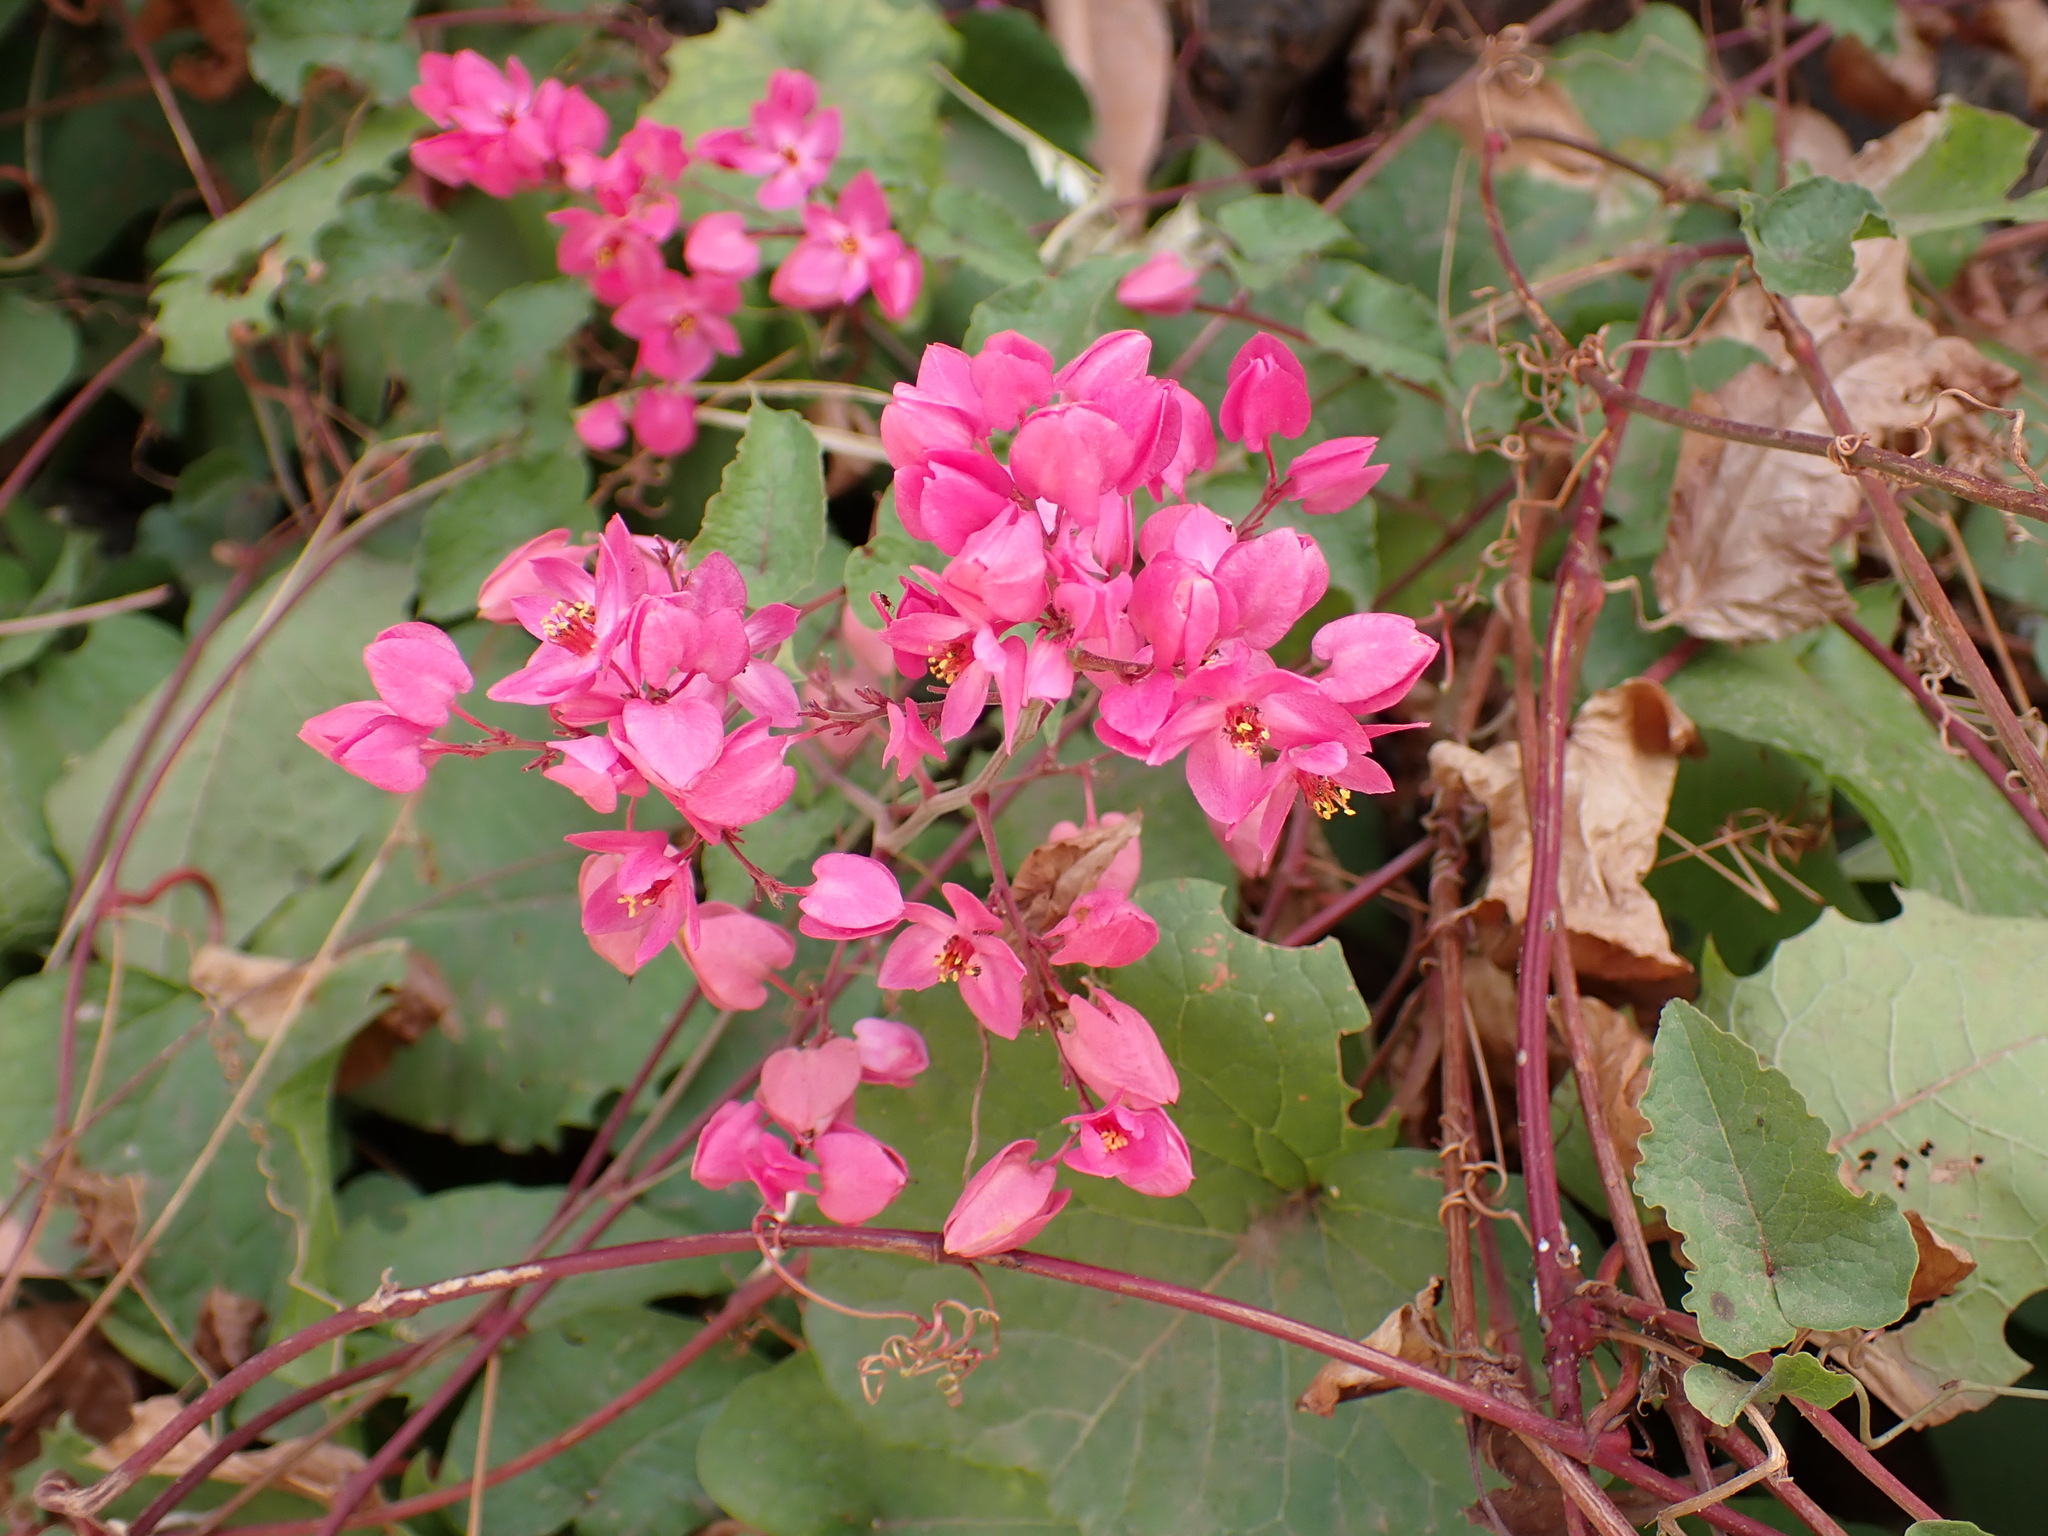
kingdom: Plantae
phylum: Tracheophyta
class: Magnoliopsida
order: Caryophyllales
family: Polygonaceae
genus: Antigonon
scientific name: Antigonon leptopus
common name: Coral vine
